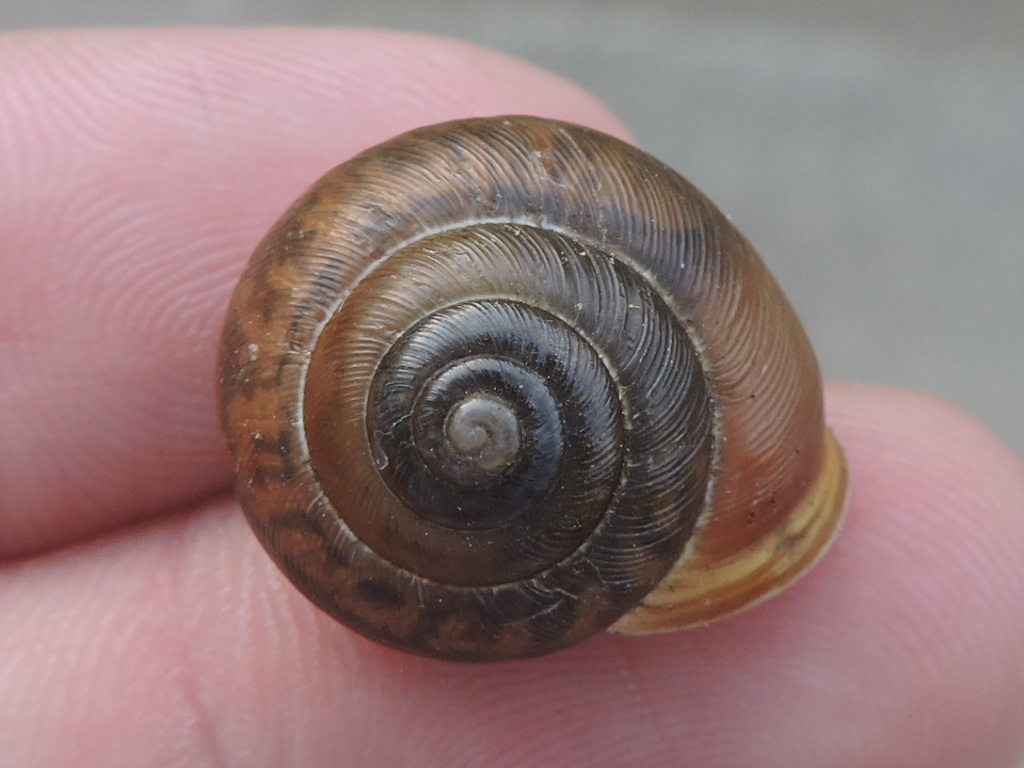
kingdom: Animalia
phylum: Mollusca
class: Gastropoda
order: Stylommatophora
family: Polygyridae
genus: Patera
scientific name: Patera roemeri
